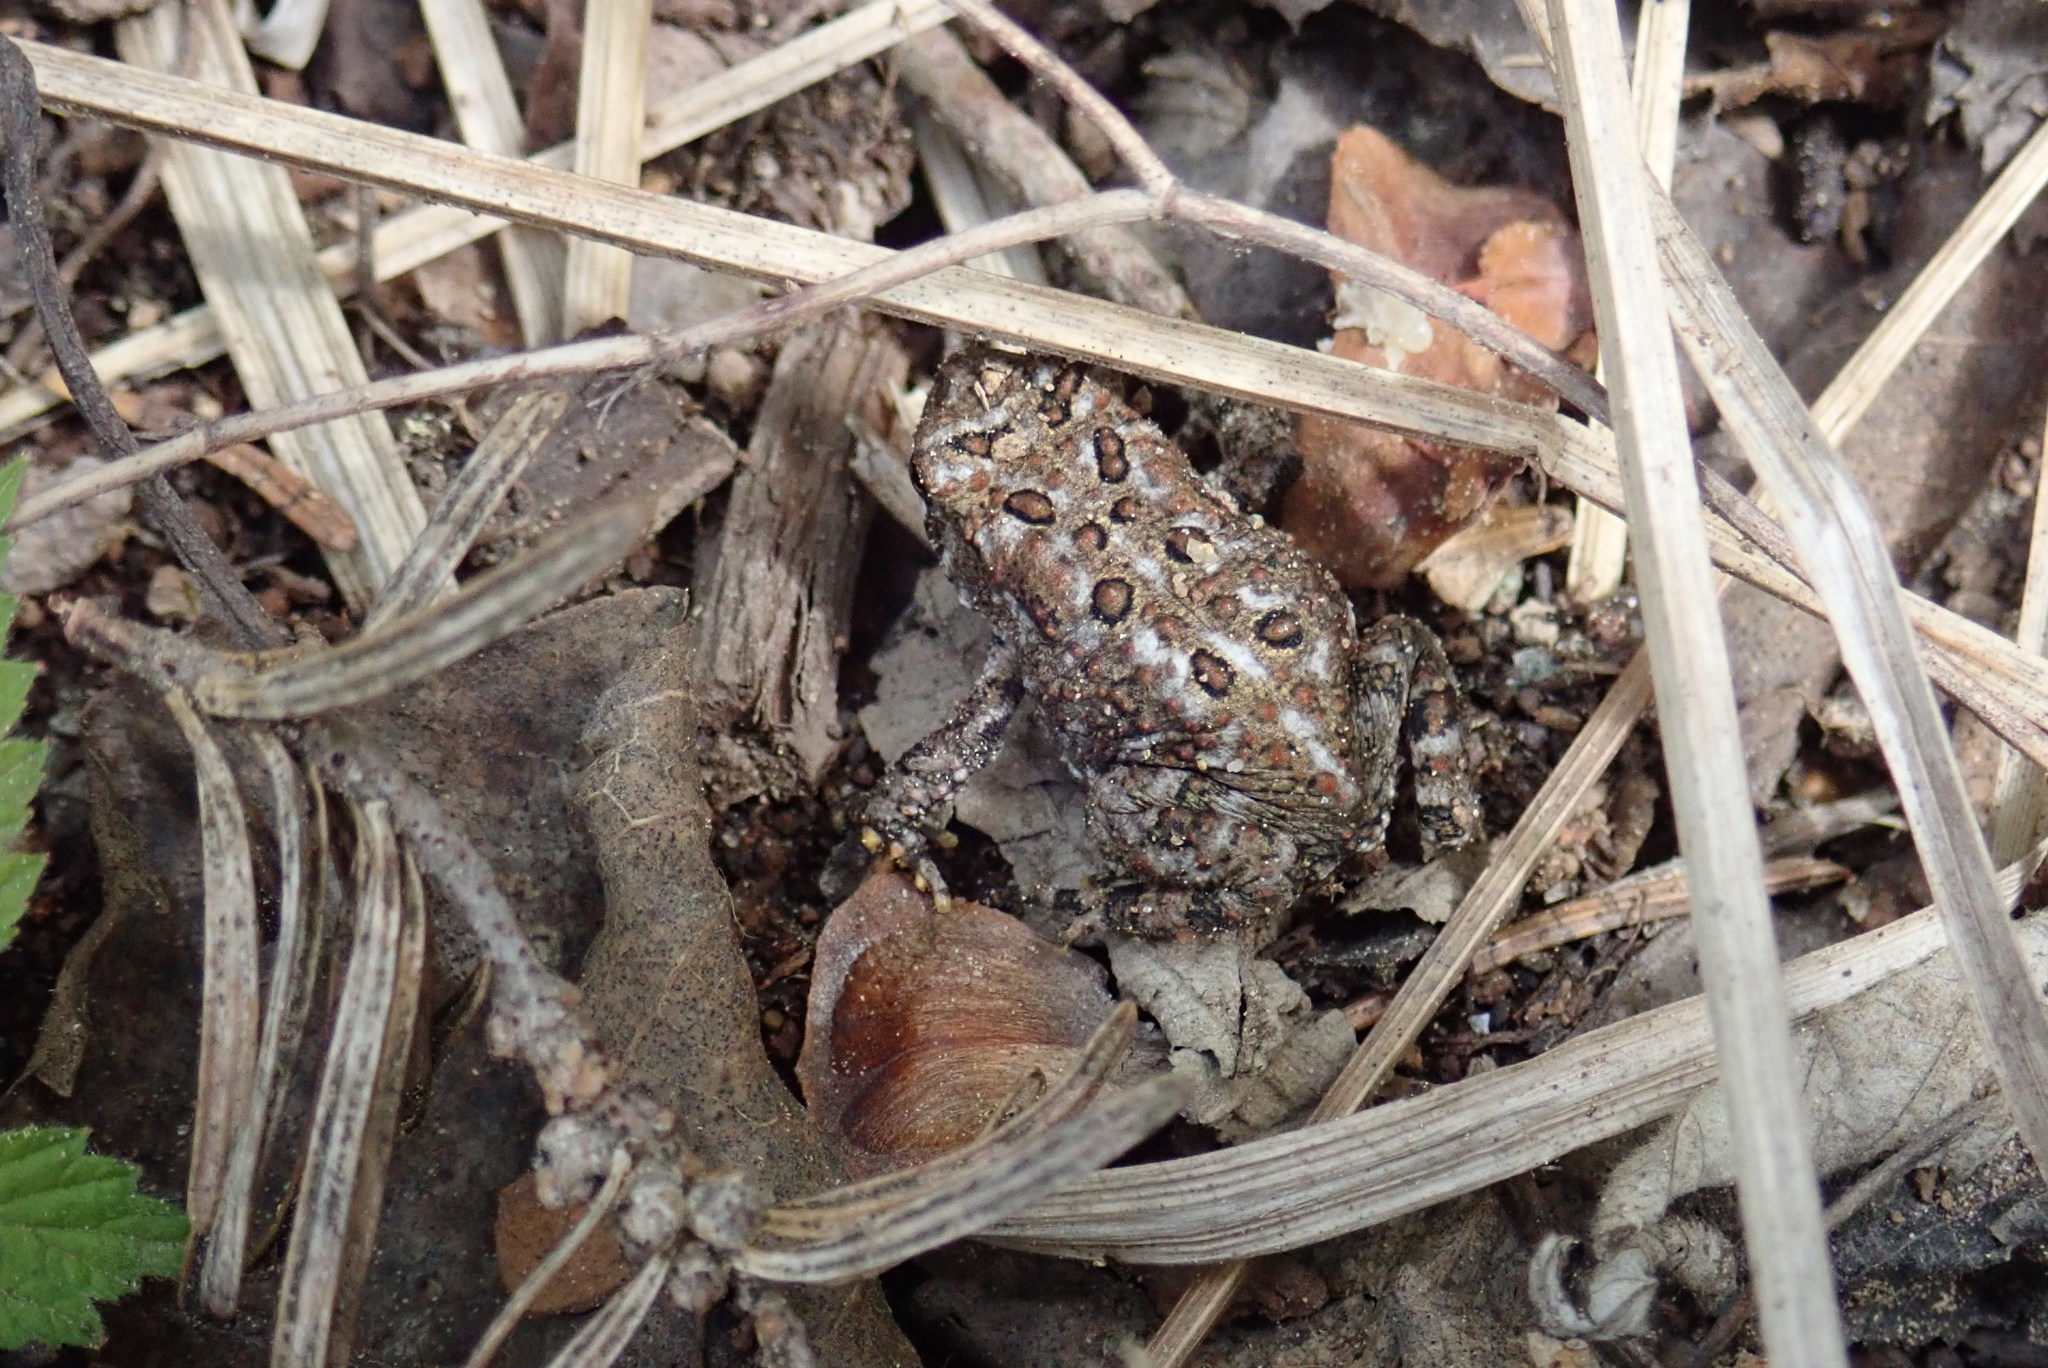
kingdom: Animalia
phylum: Chordata
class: Amphibia
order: Anura
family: Bufonidae
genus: Anaxyrus
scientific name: Anaxyrus americanus
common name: American toad
